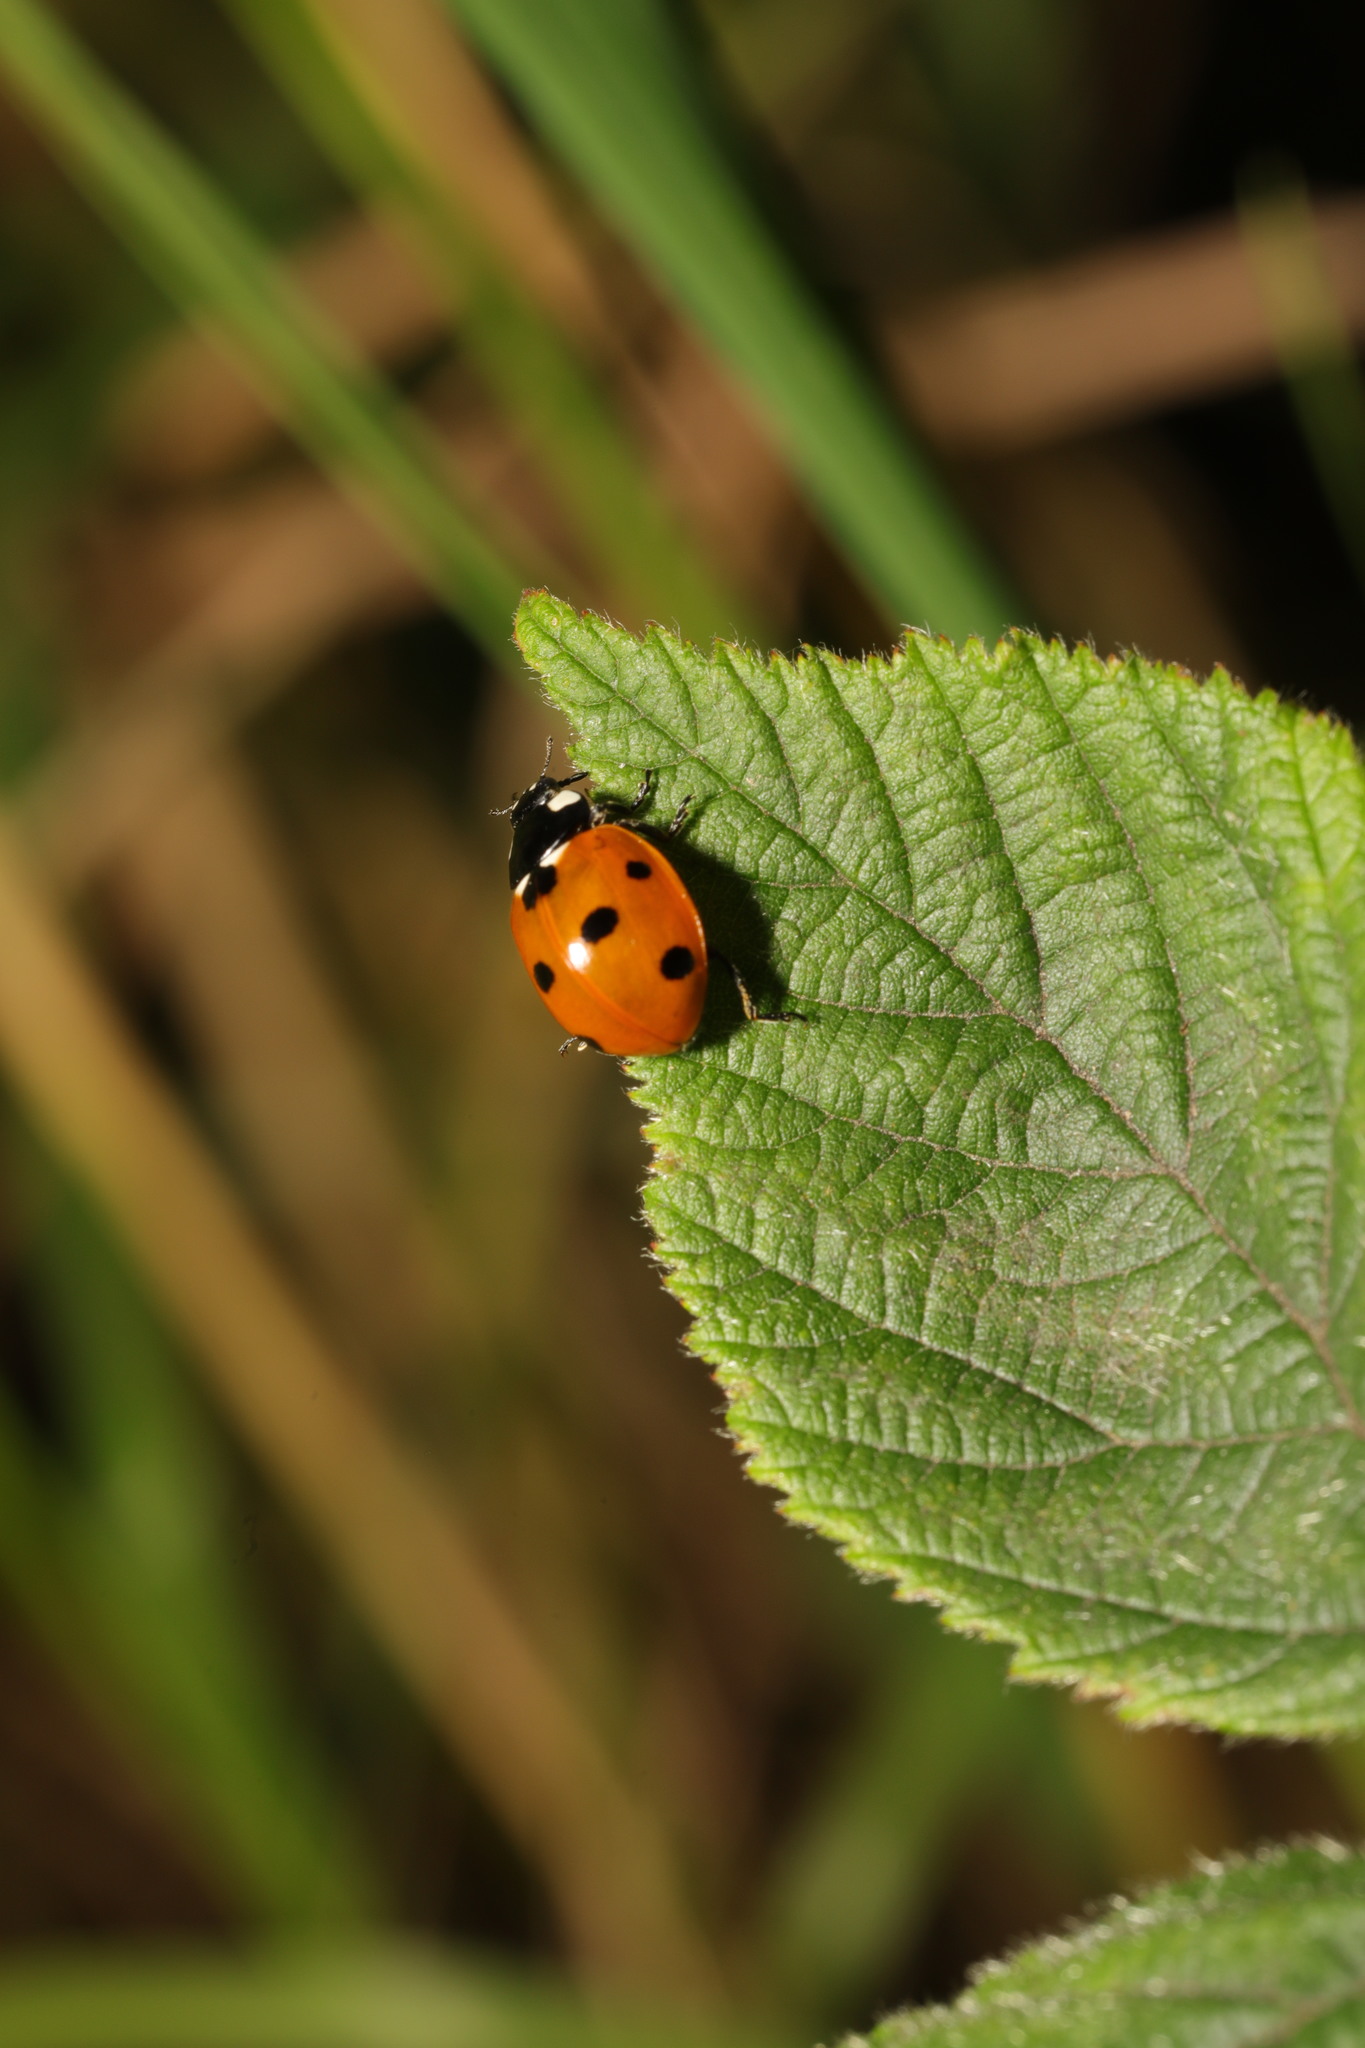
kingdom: Animalia
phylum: Arthropoda
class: Insecta
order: Coleoptera
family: Coccinellidae
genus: Coccinella
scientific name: Coccinella septempunctata
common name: Sevenspotted lady beetle
